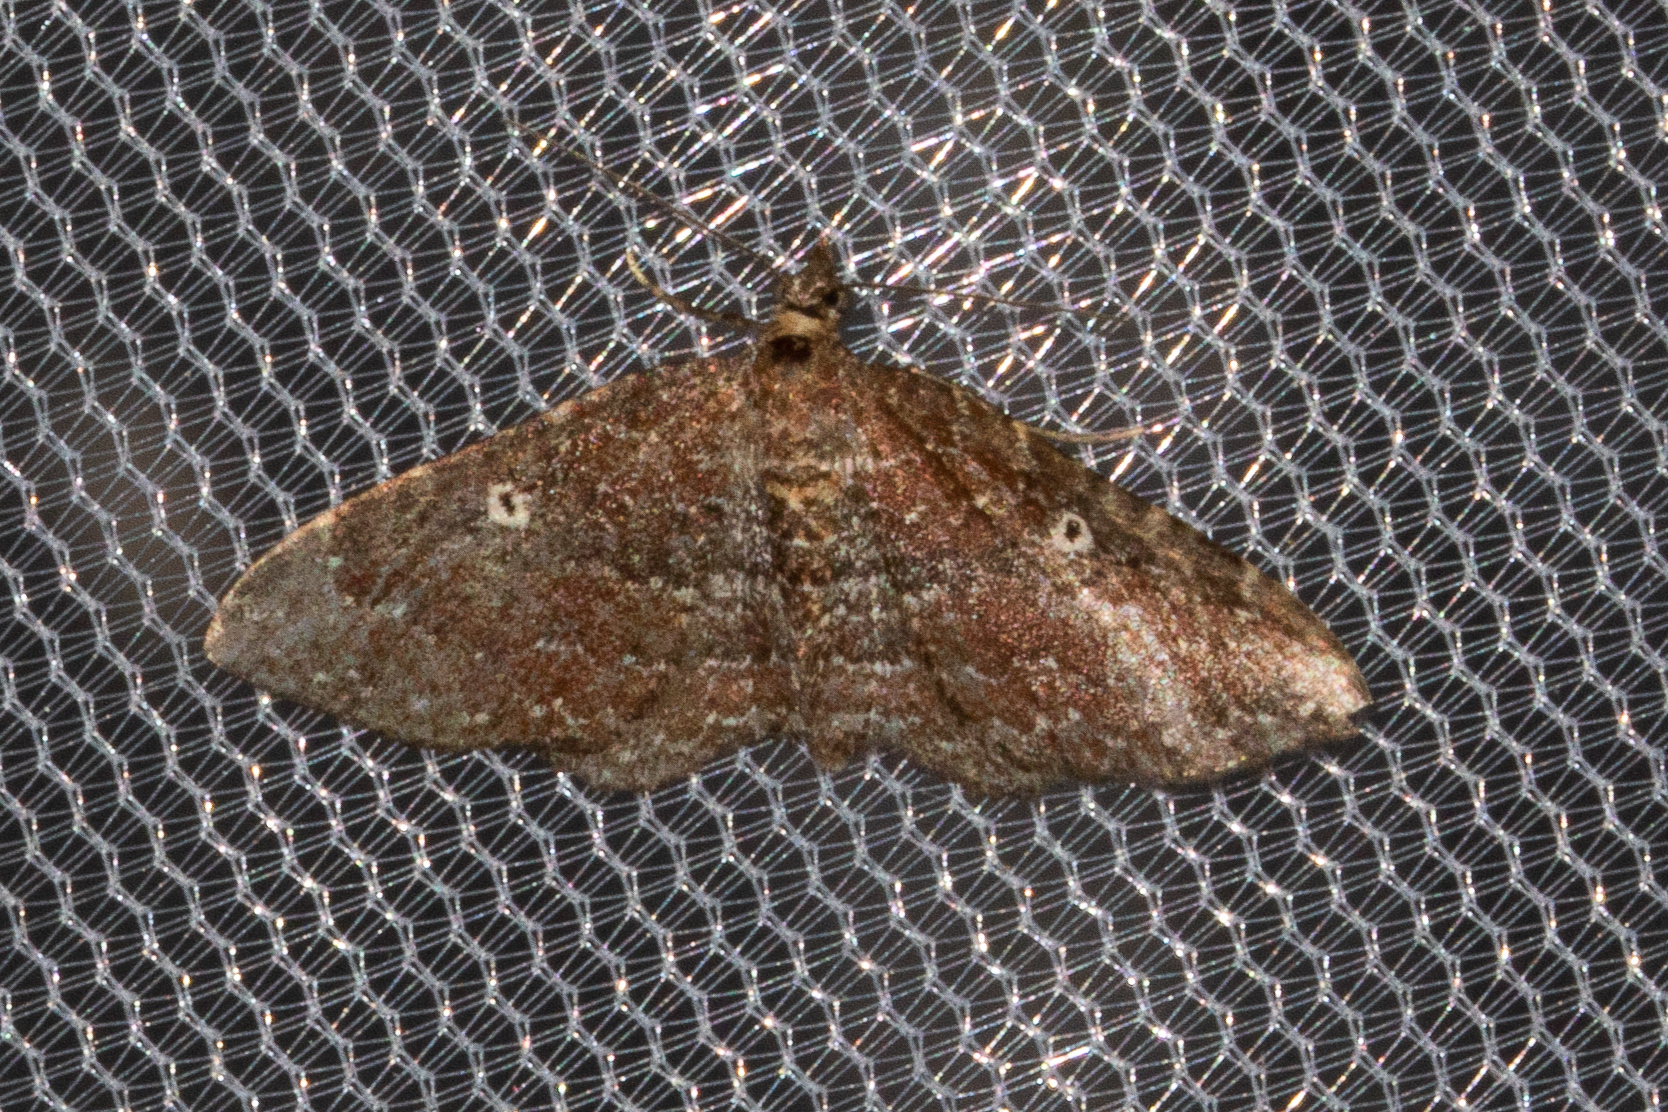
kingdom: Animalia
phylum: Arthropoda
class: Insecta
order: Lepidoptera
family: Geometridae
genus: Orthonama
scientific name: Orthonama obstipata
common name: The gem
